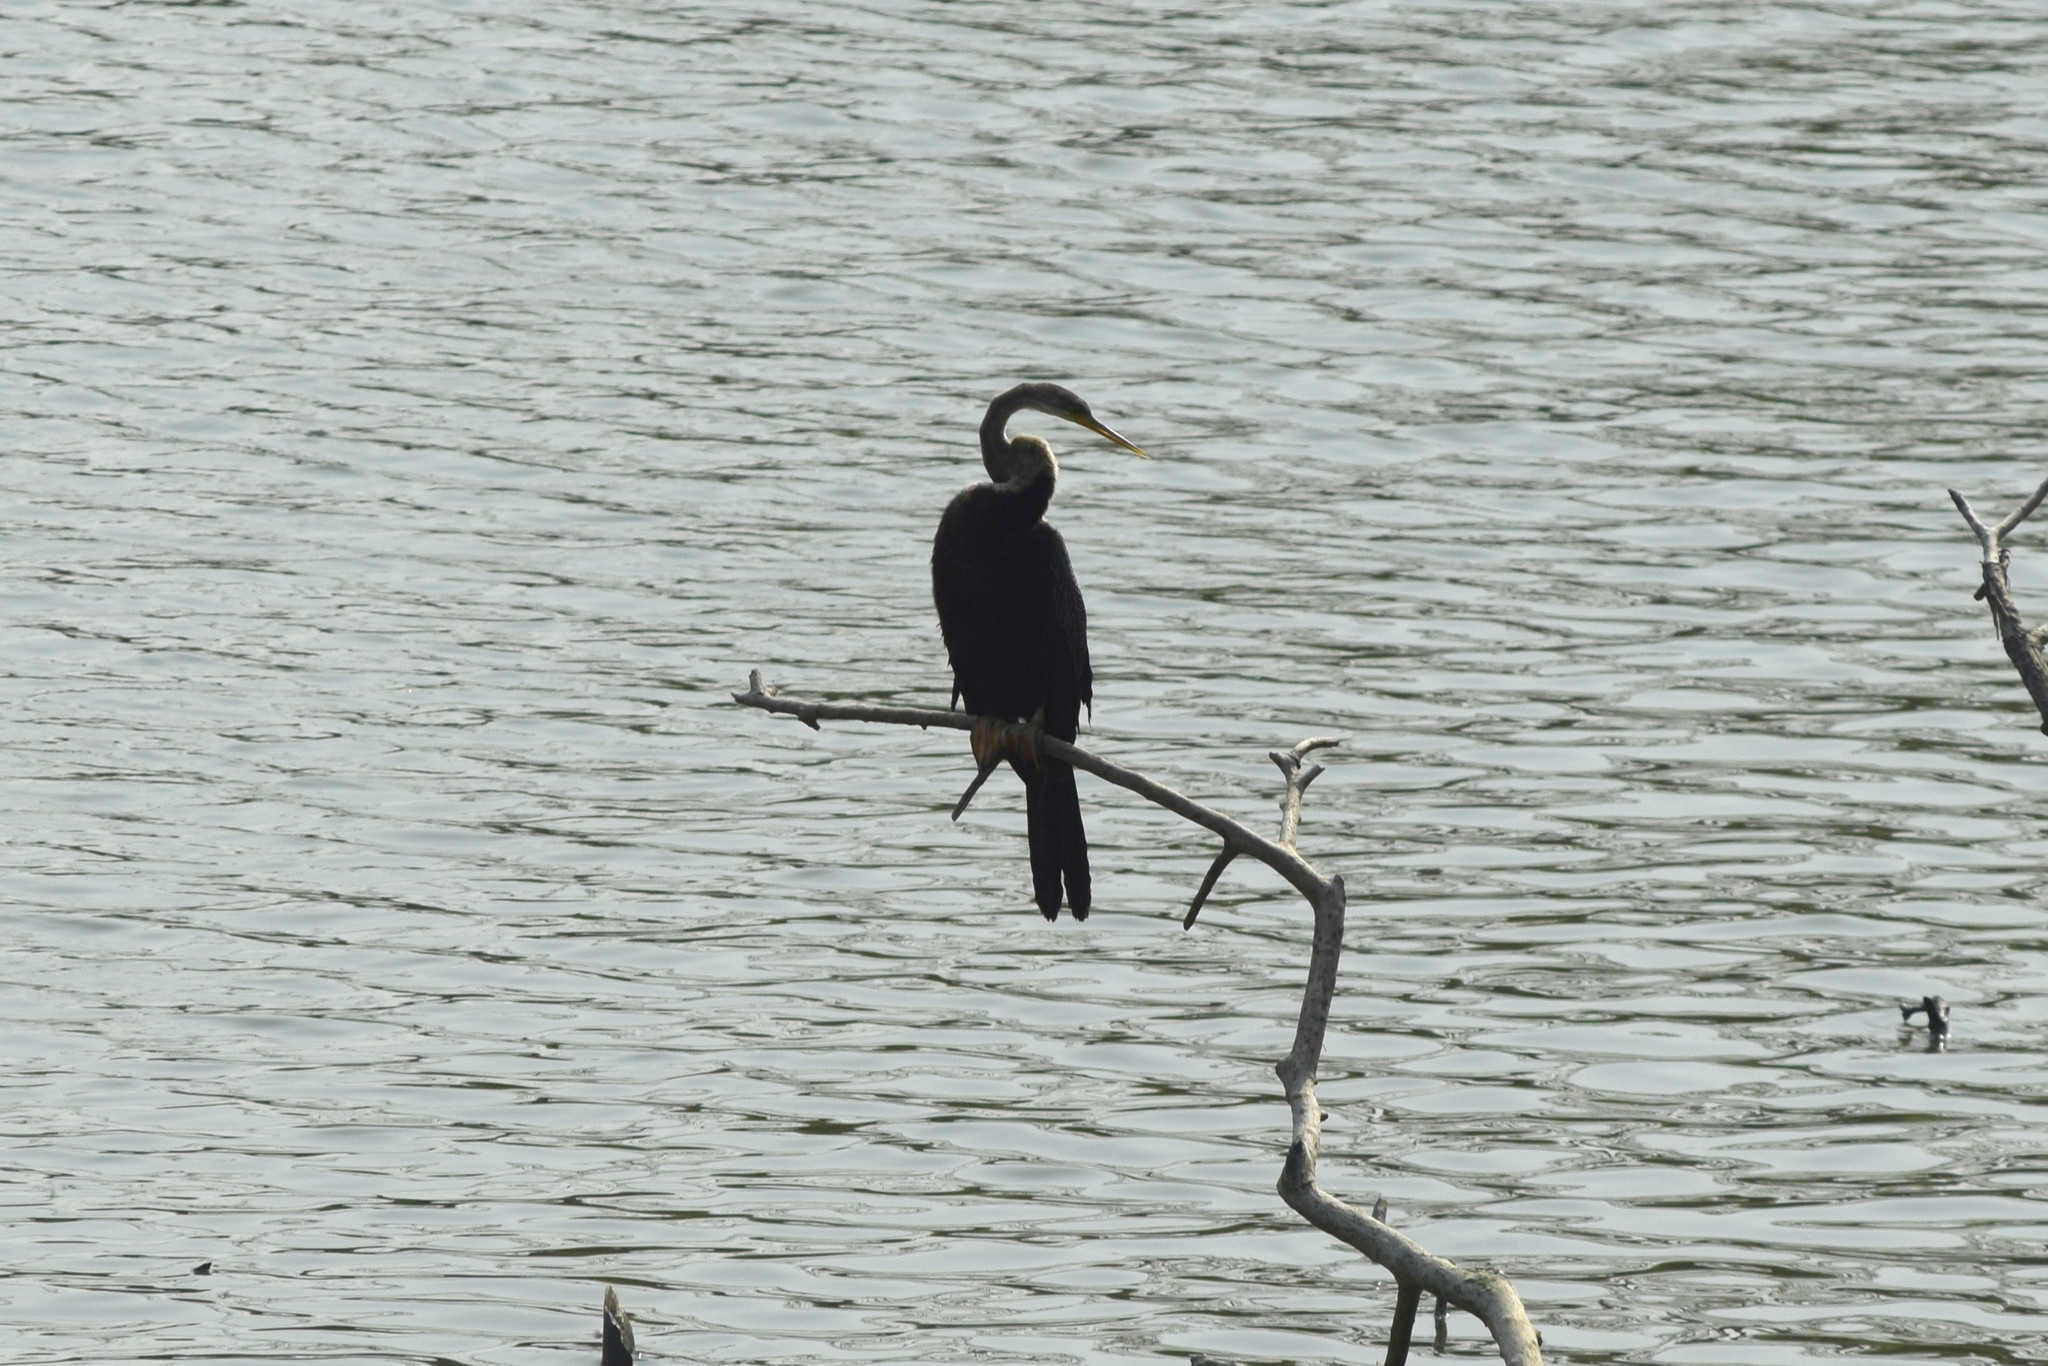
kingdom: Animalia
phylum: Chordata
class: Aves
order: Suliformes
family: Anhingidae
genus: Anhinga
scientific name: Anhinga melanogaster
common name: Oriental darter
